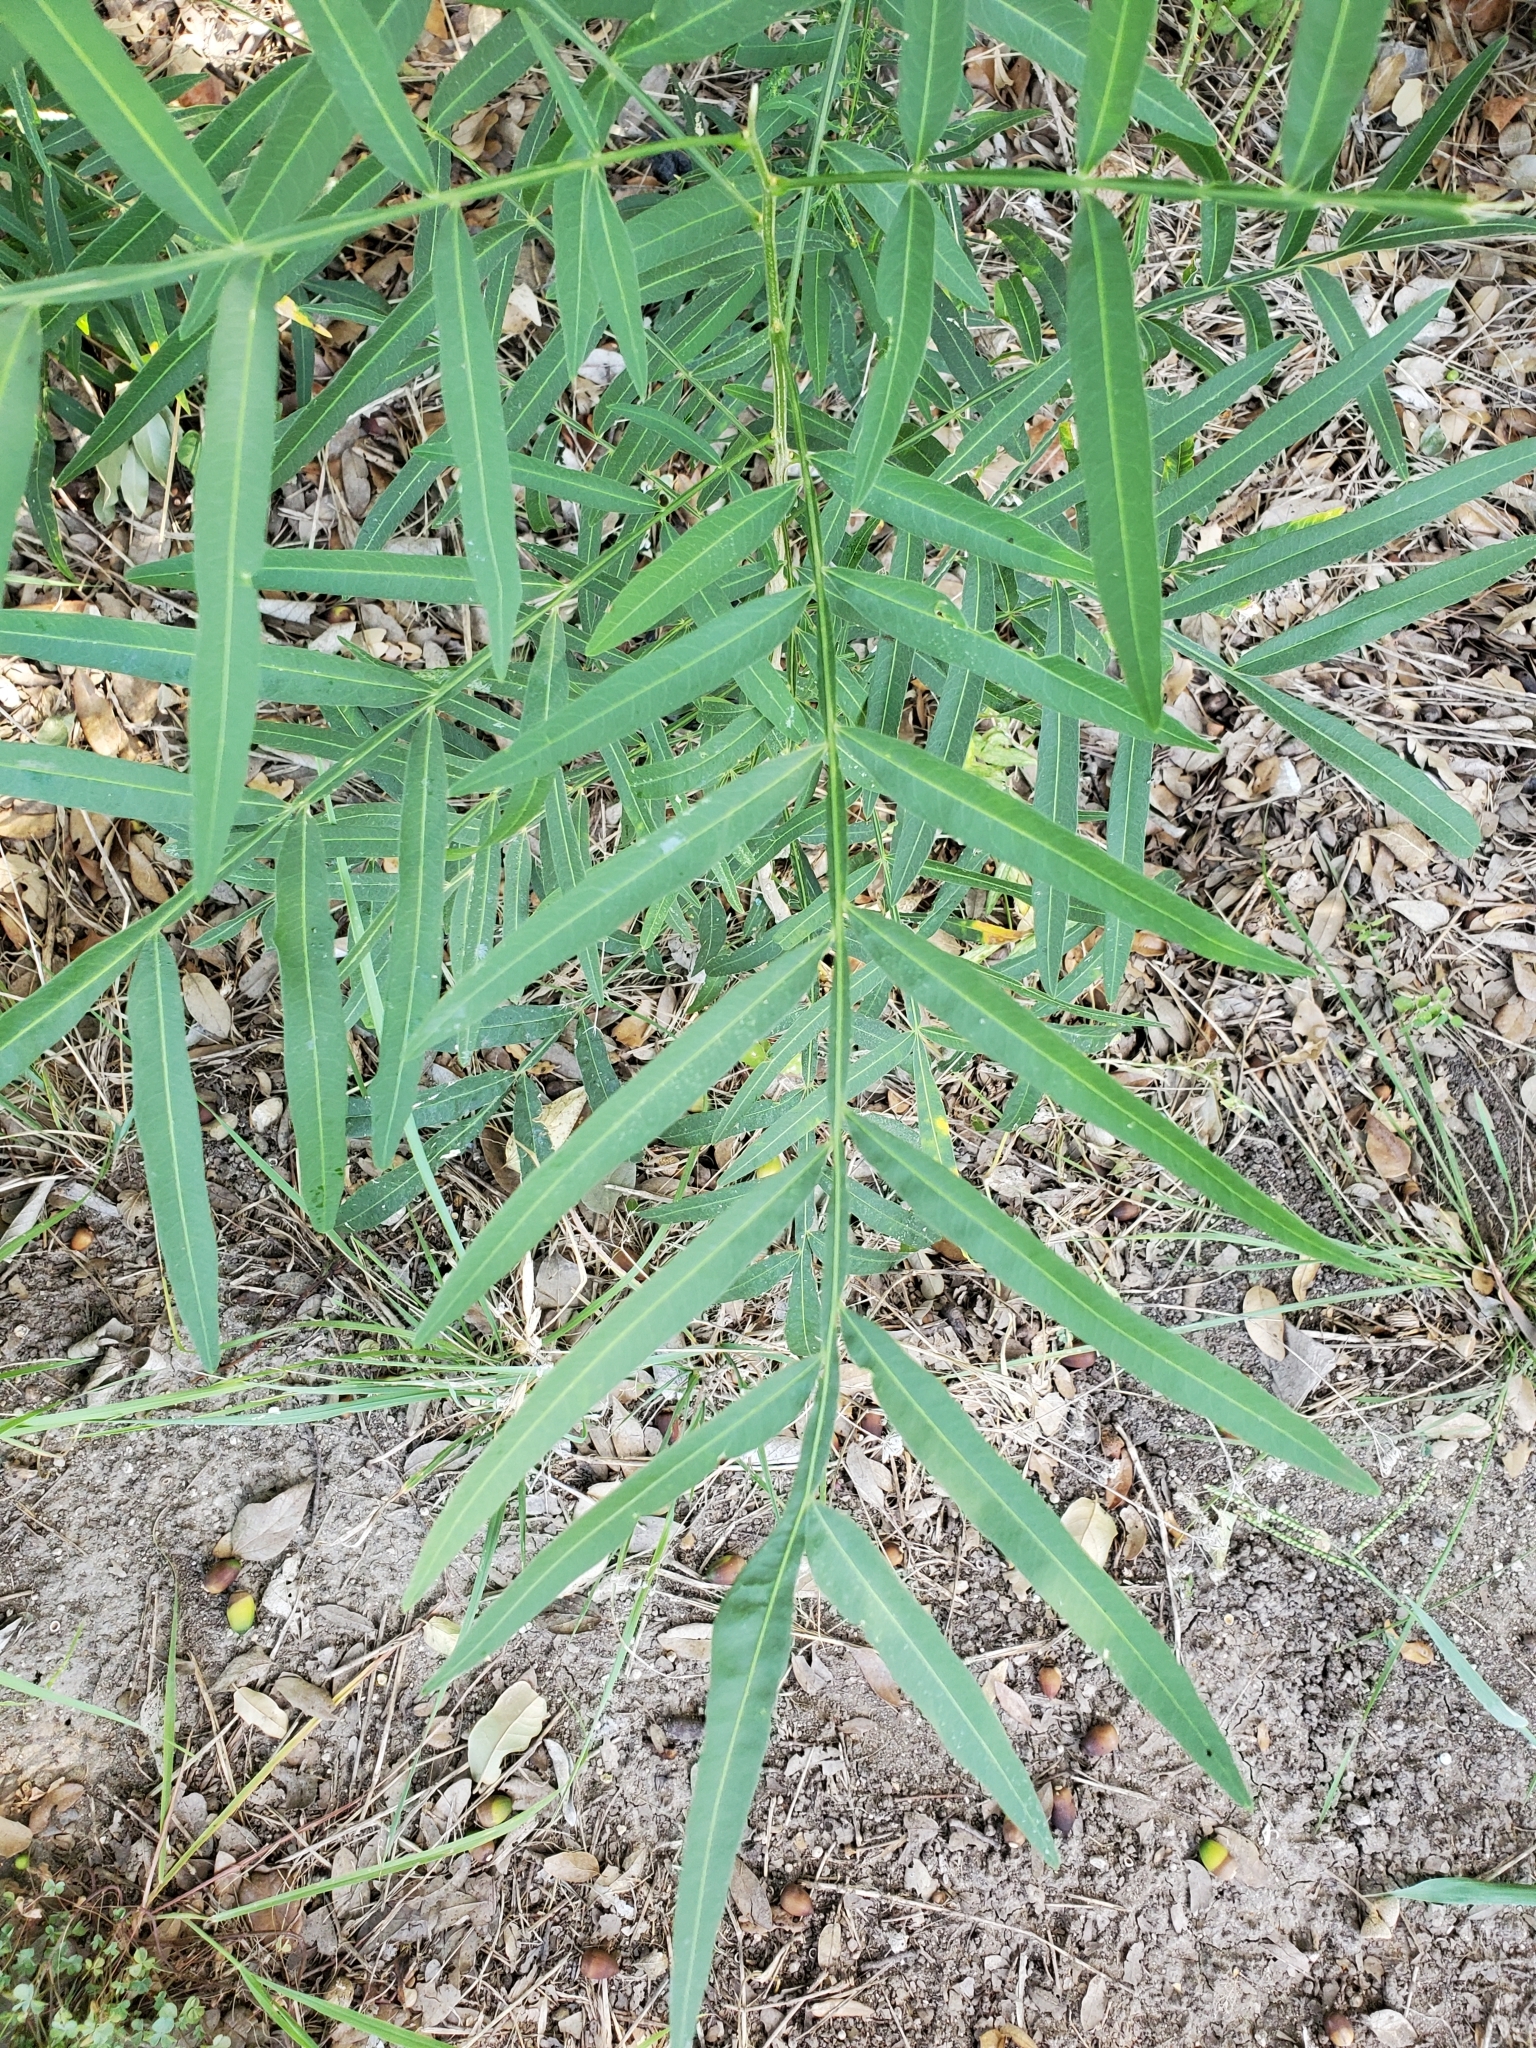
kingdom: Plantae
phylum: Tracheophyta
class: Magnoliopsida
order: Sapindales
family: Sapindaceae
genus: Sapindus
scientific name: Sapindus drummondii
